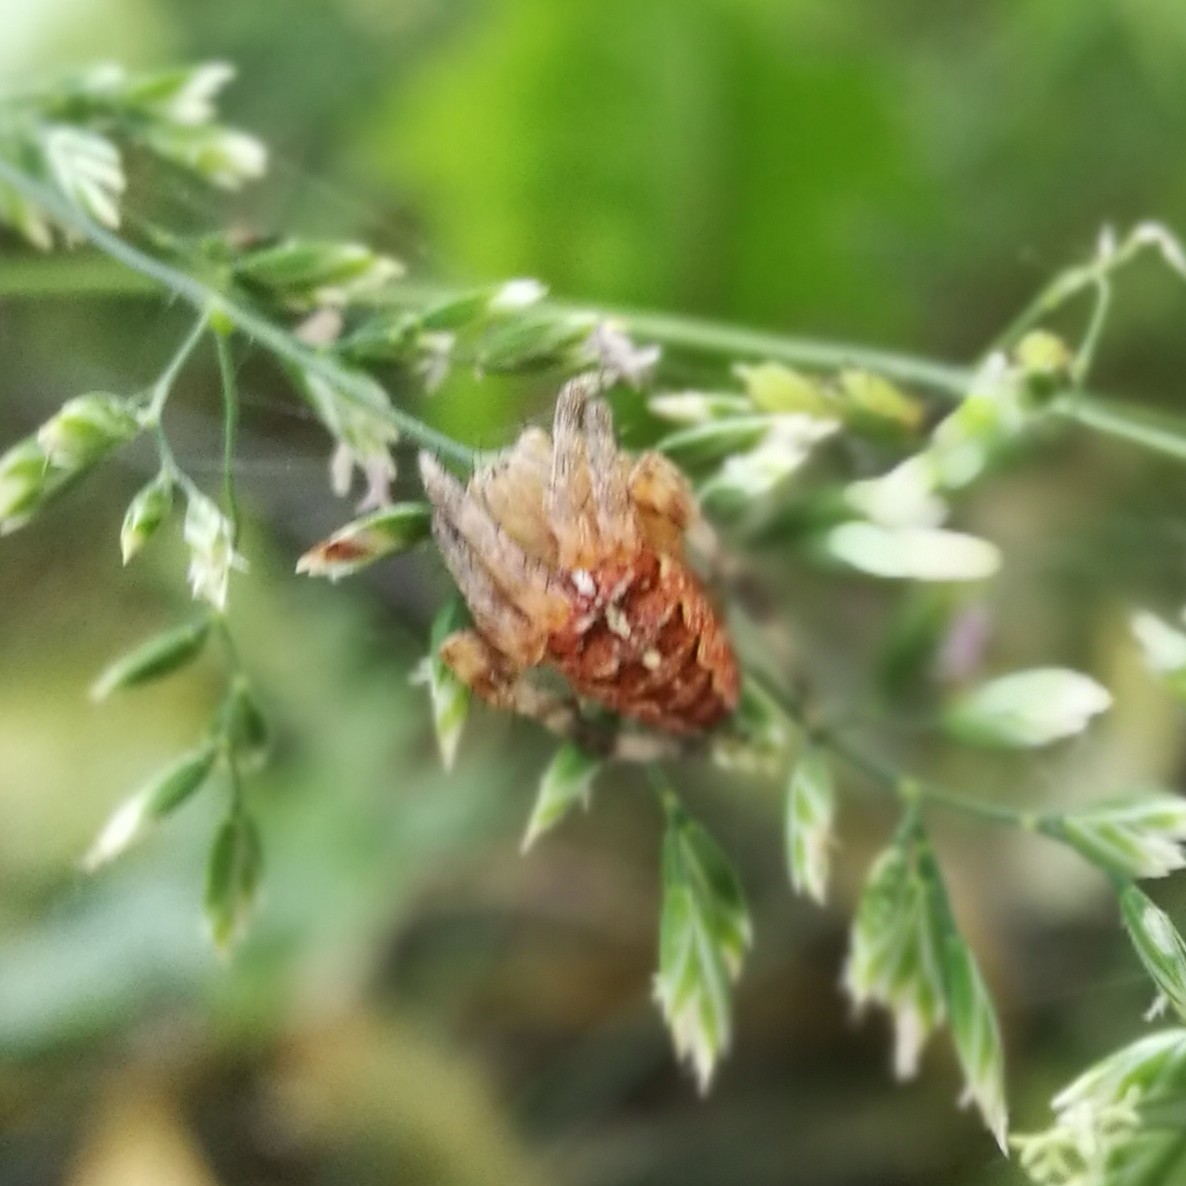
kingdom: Animalia
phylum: Arthropoda
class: Arachnida
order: Araneae
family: Araneidae
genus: Araneus
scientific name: Araneus diadematus
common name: Cross orbweaver
